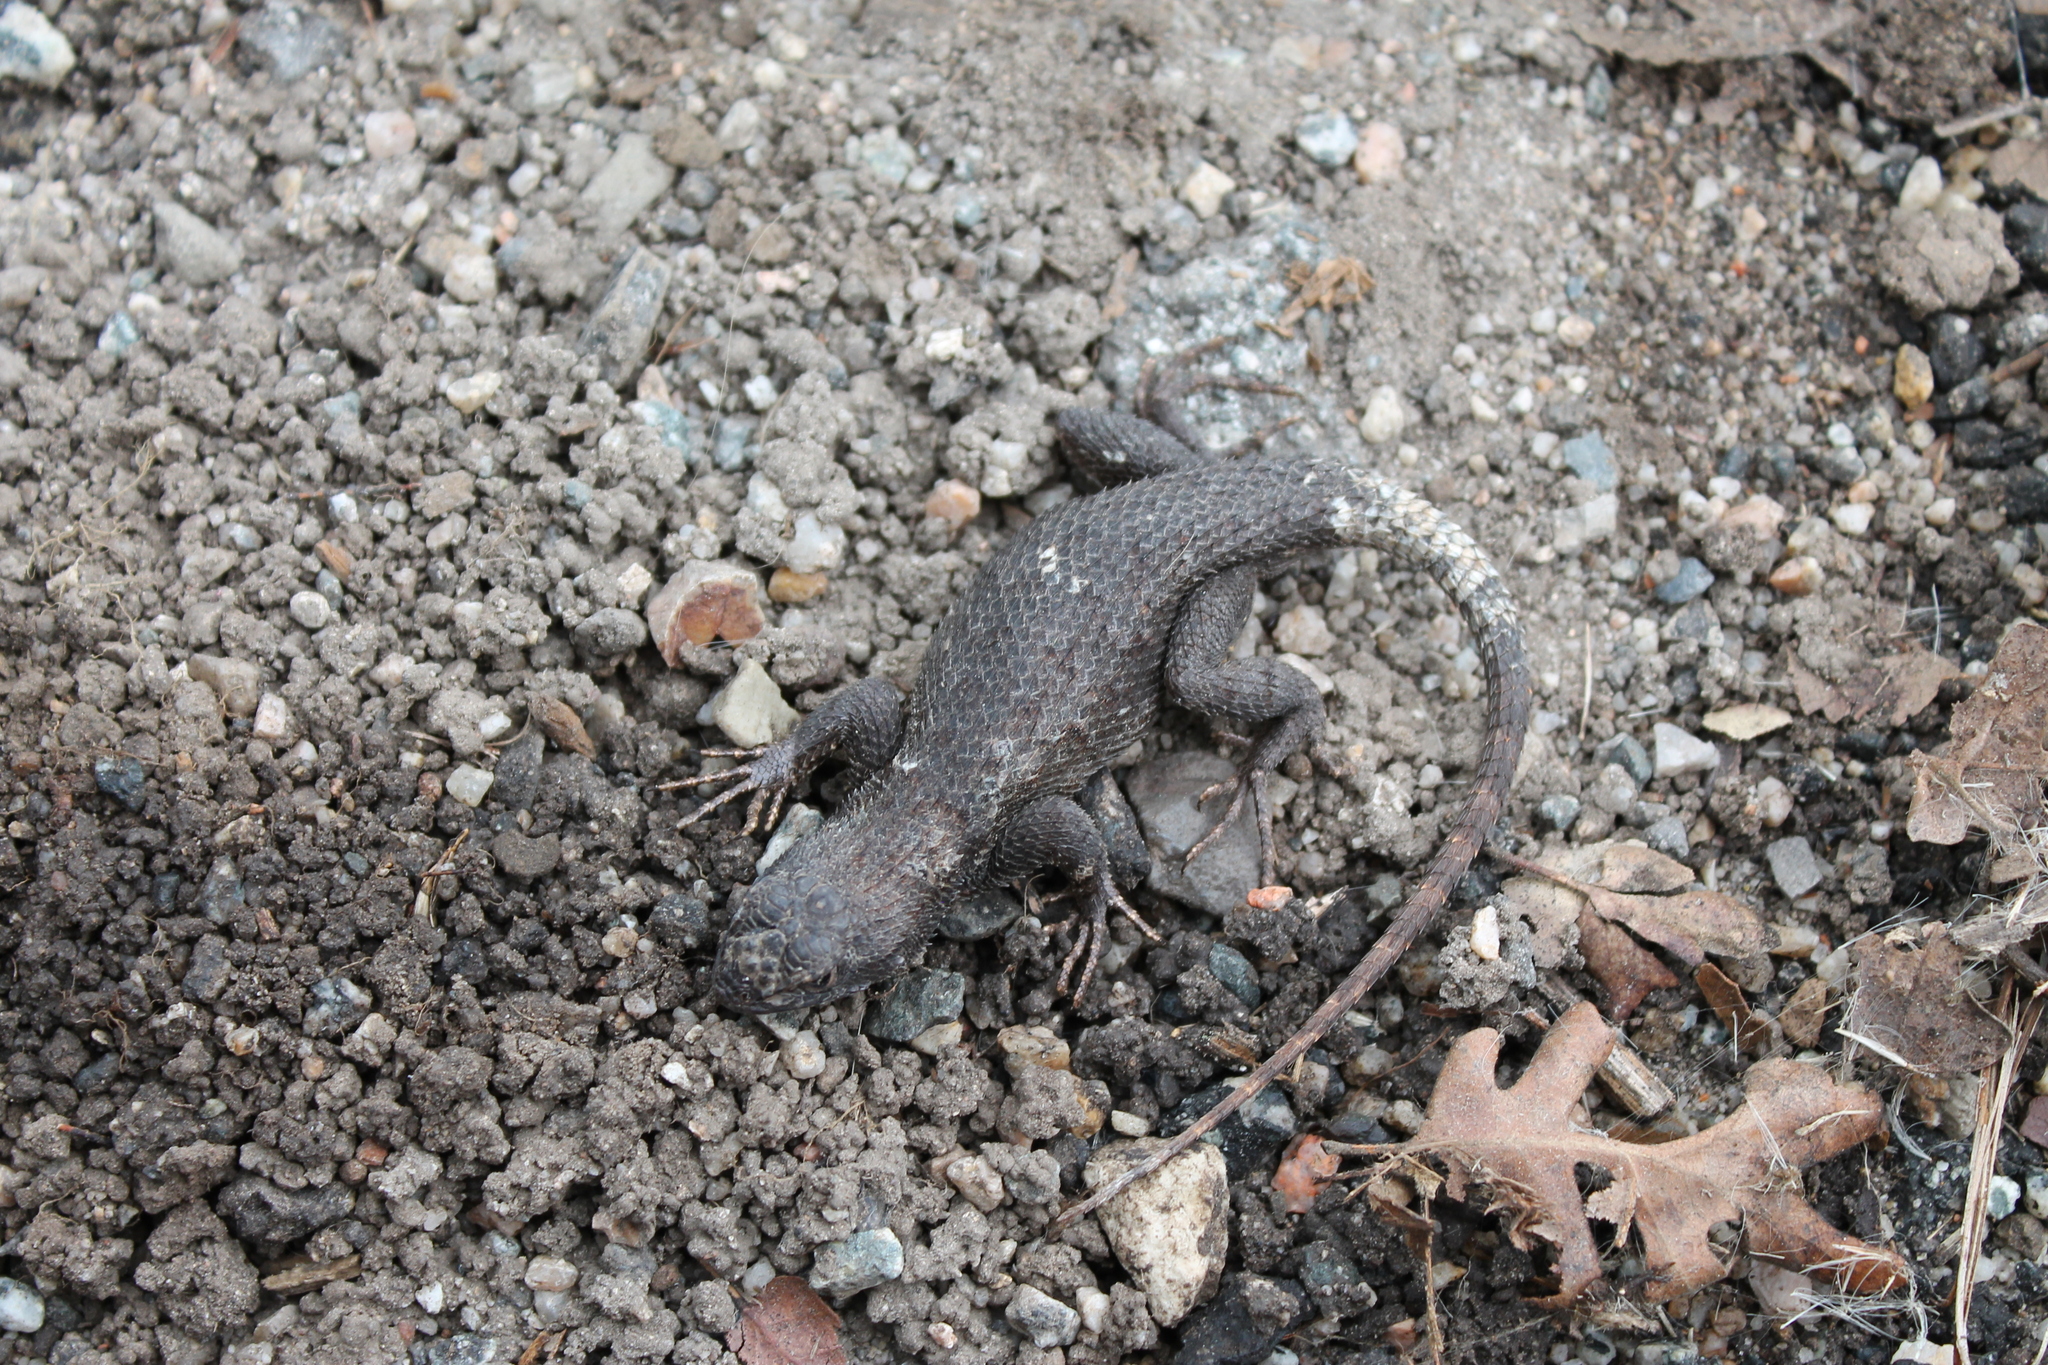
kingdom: Animalia
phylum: Chordata
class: Squamata
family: Phrynosomatidae
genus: Sceloporus
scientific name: Sceloporus occidentalis
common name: Western fence lizard
